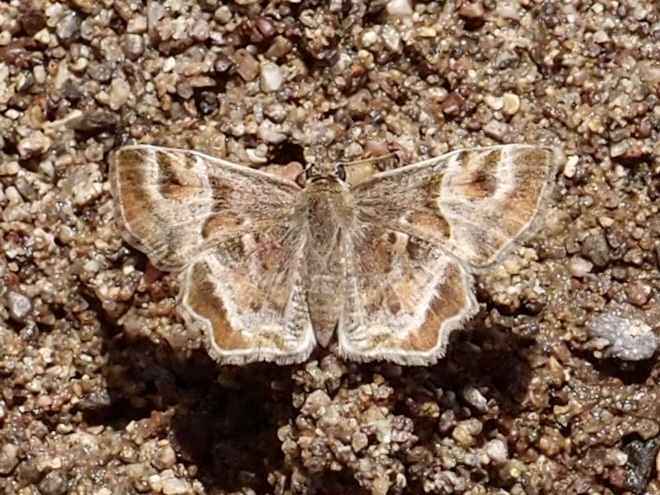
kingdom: Animalia
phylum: Arthropoda
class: Insecta
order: Lepidoptera
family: Hesperiidae
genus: Systasea
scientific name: Systasea pulverulenta
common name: Texas powdered skipper
